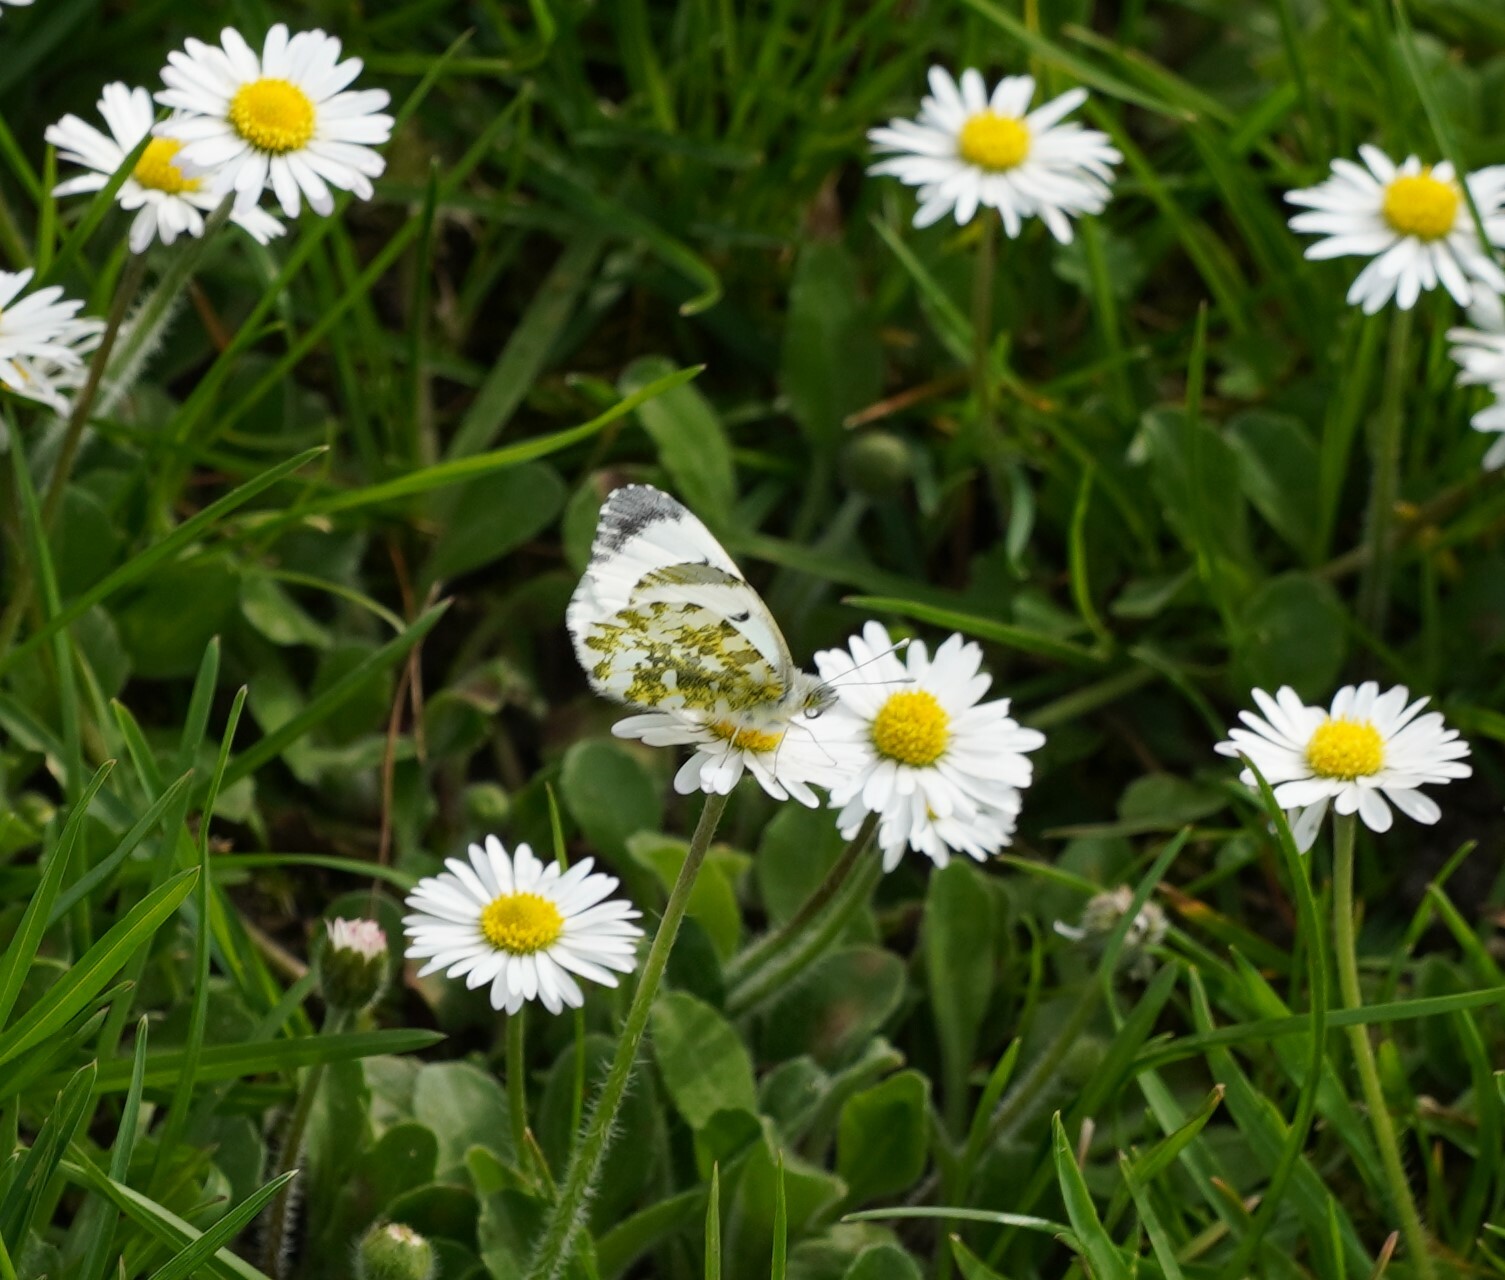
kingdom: Animalia
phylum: Arthropoda
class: Insecta
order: Lepidoptera
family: Pieridae
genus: Anthocharis
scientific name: Anthocharis cardamines
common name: Orange-tip
